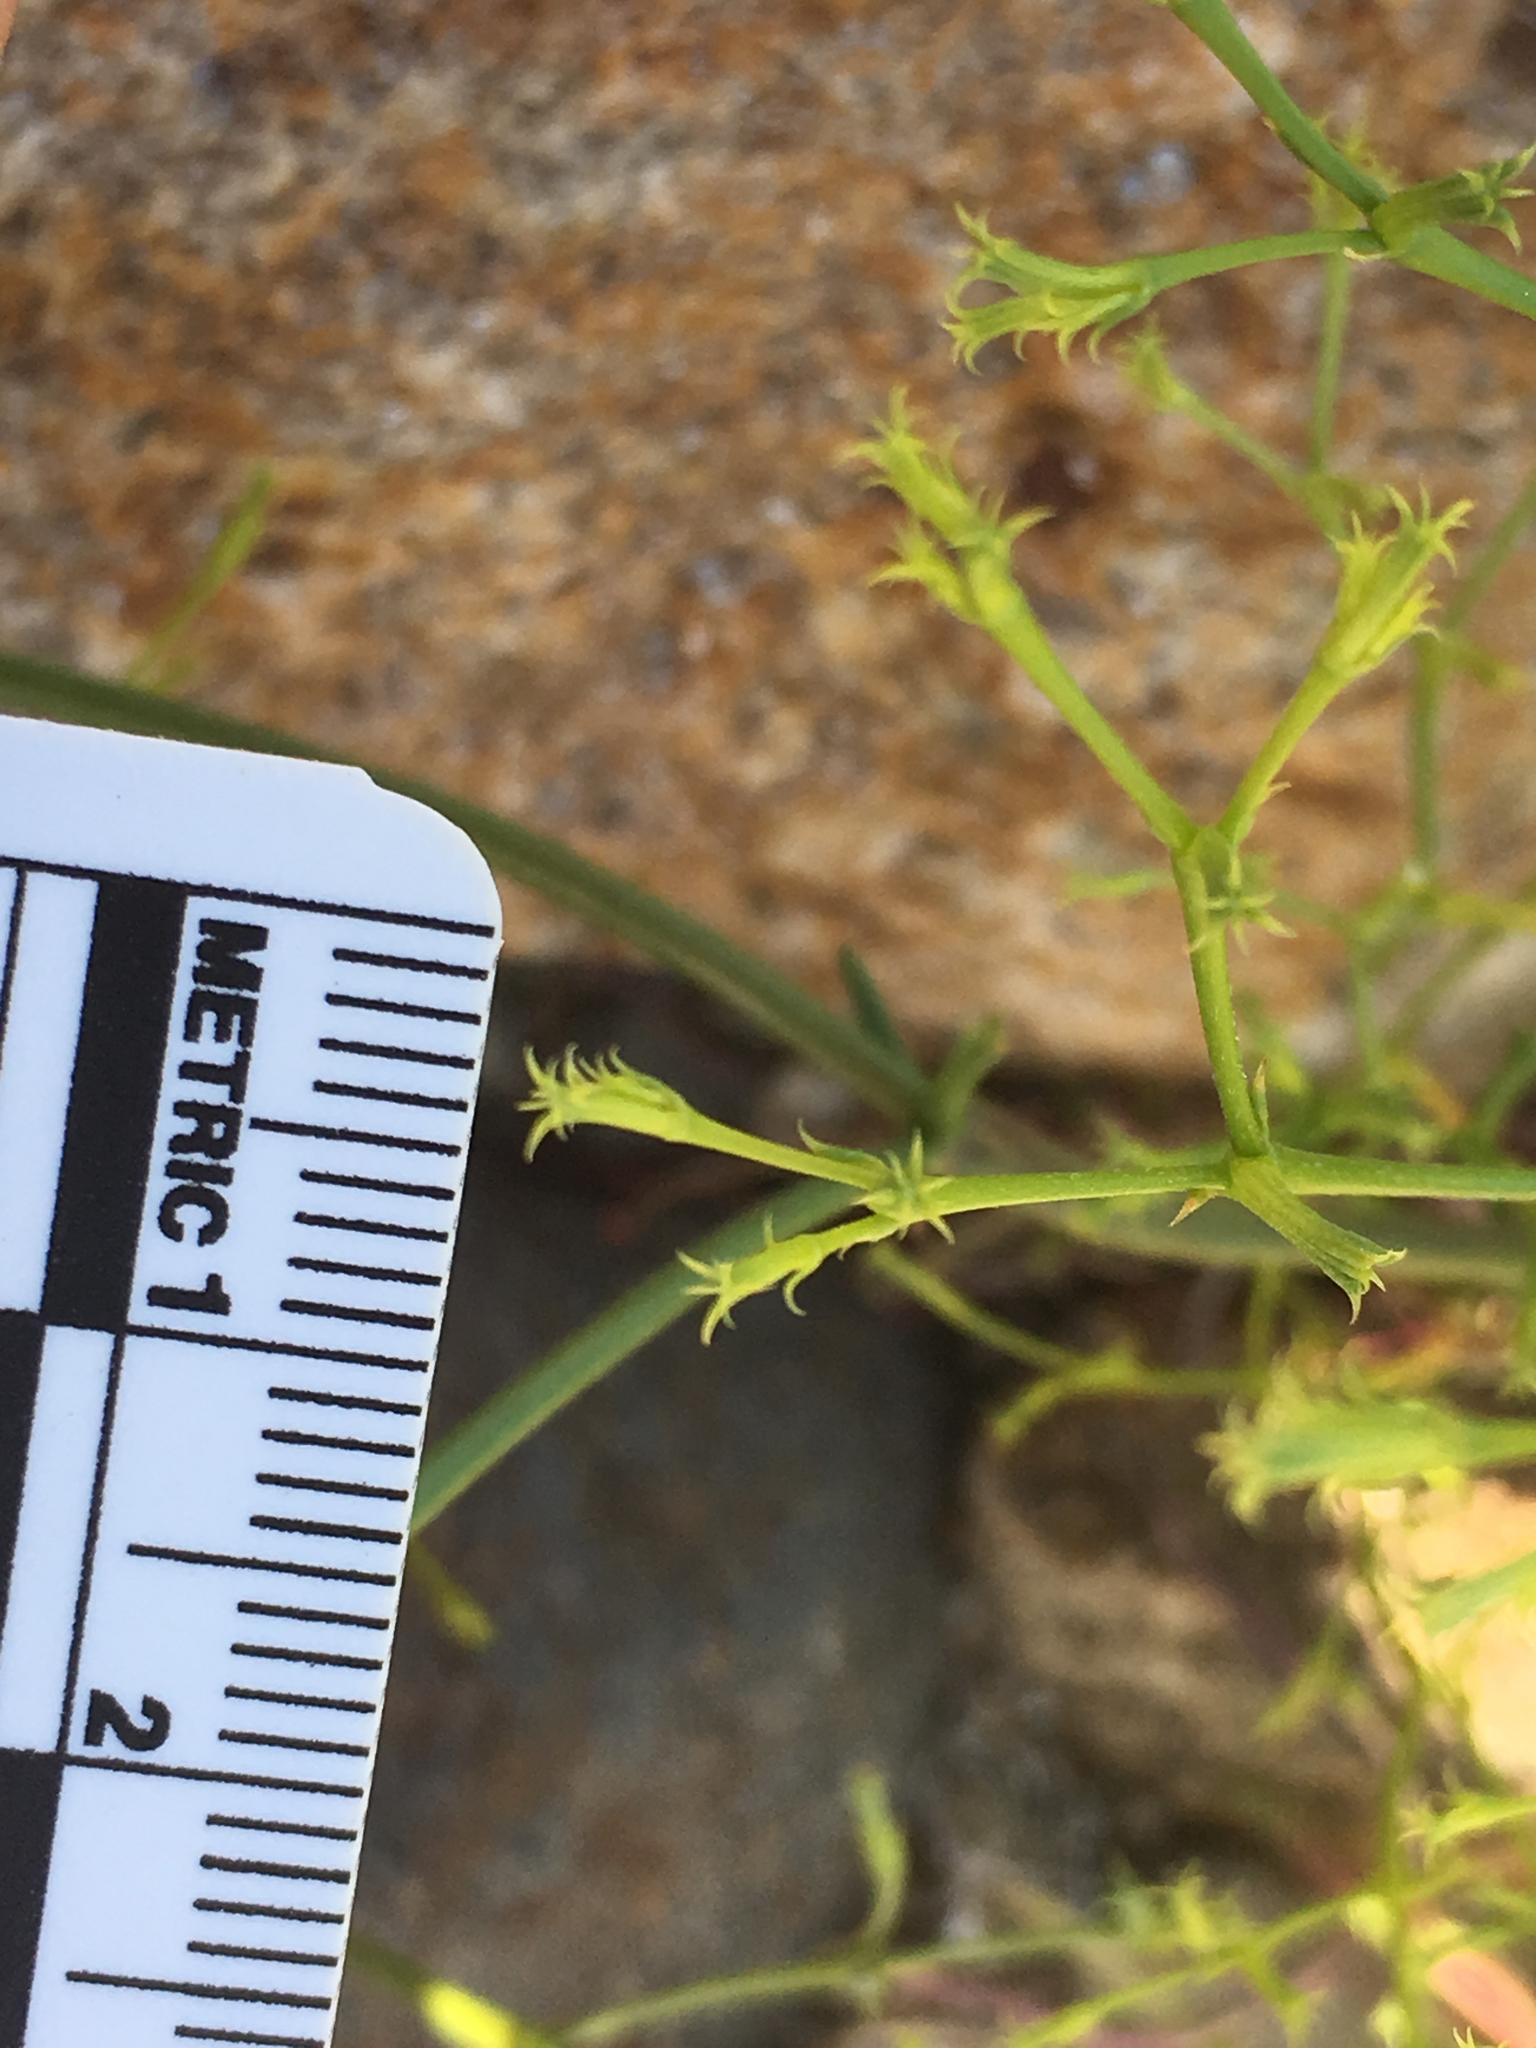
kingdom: Plantae
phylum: Tracheophyta
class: Magnoliopsida
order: Caryophyllales
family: Polygonaceae
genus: Chorizanthe
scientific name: Chorizanthe brevicornu
